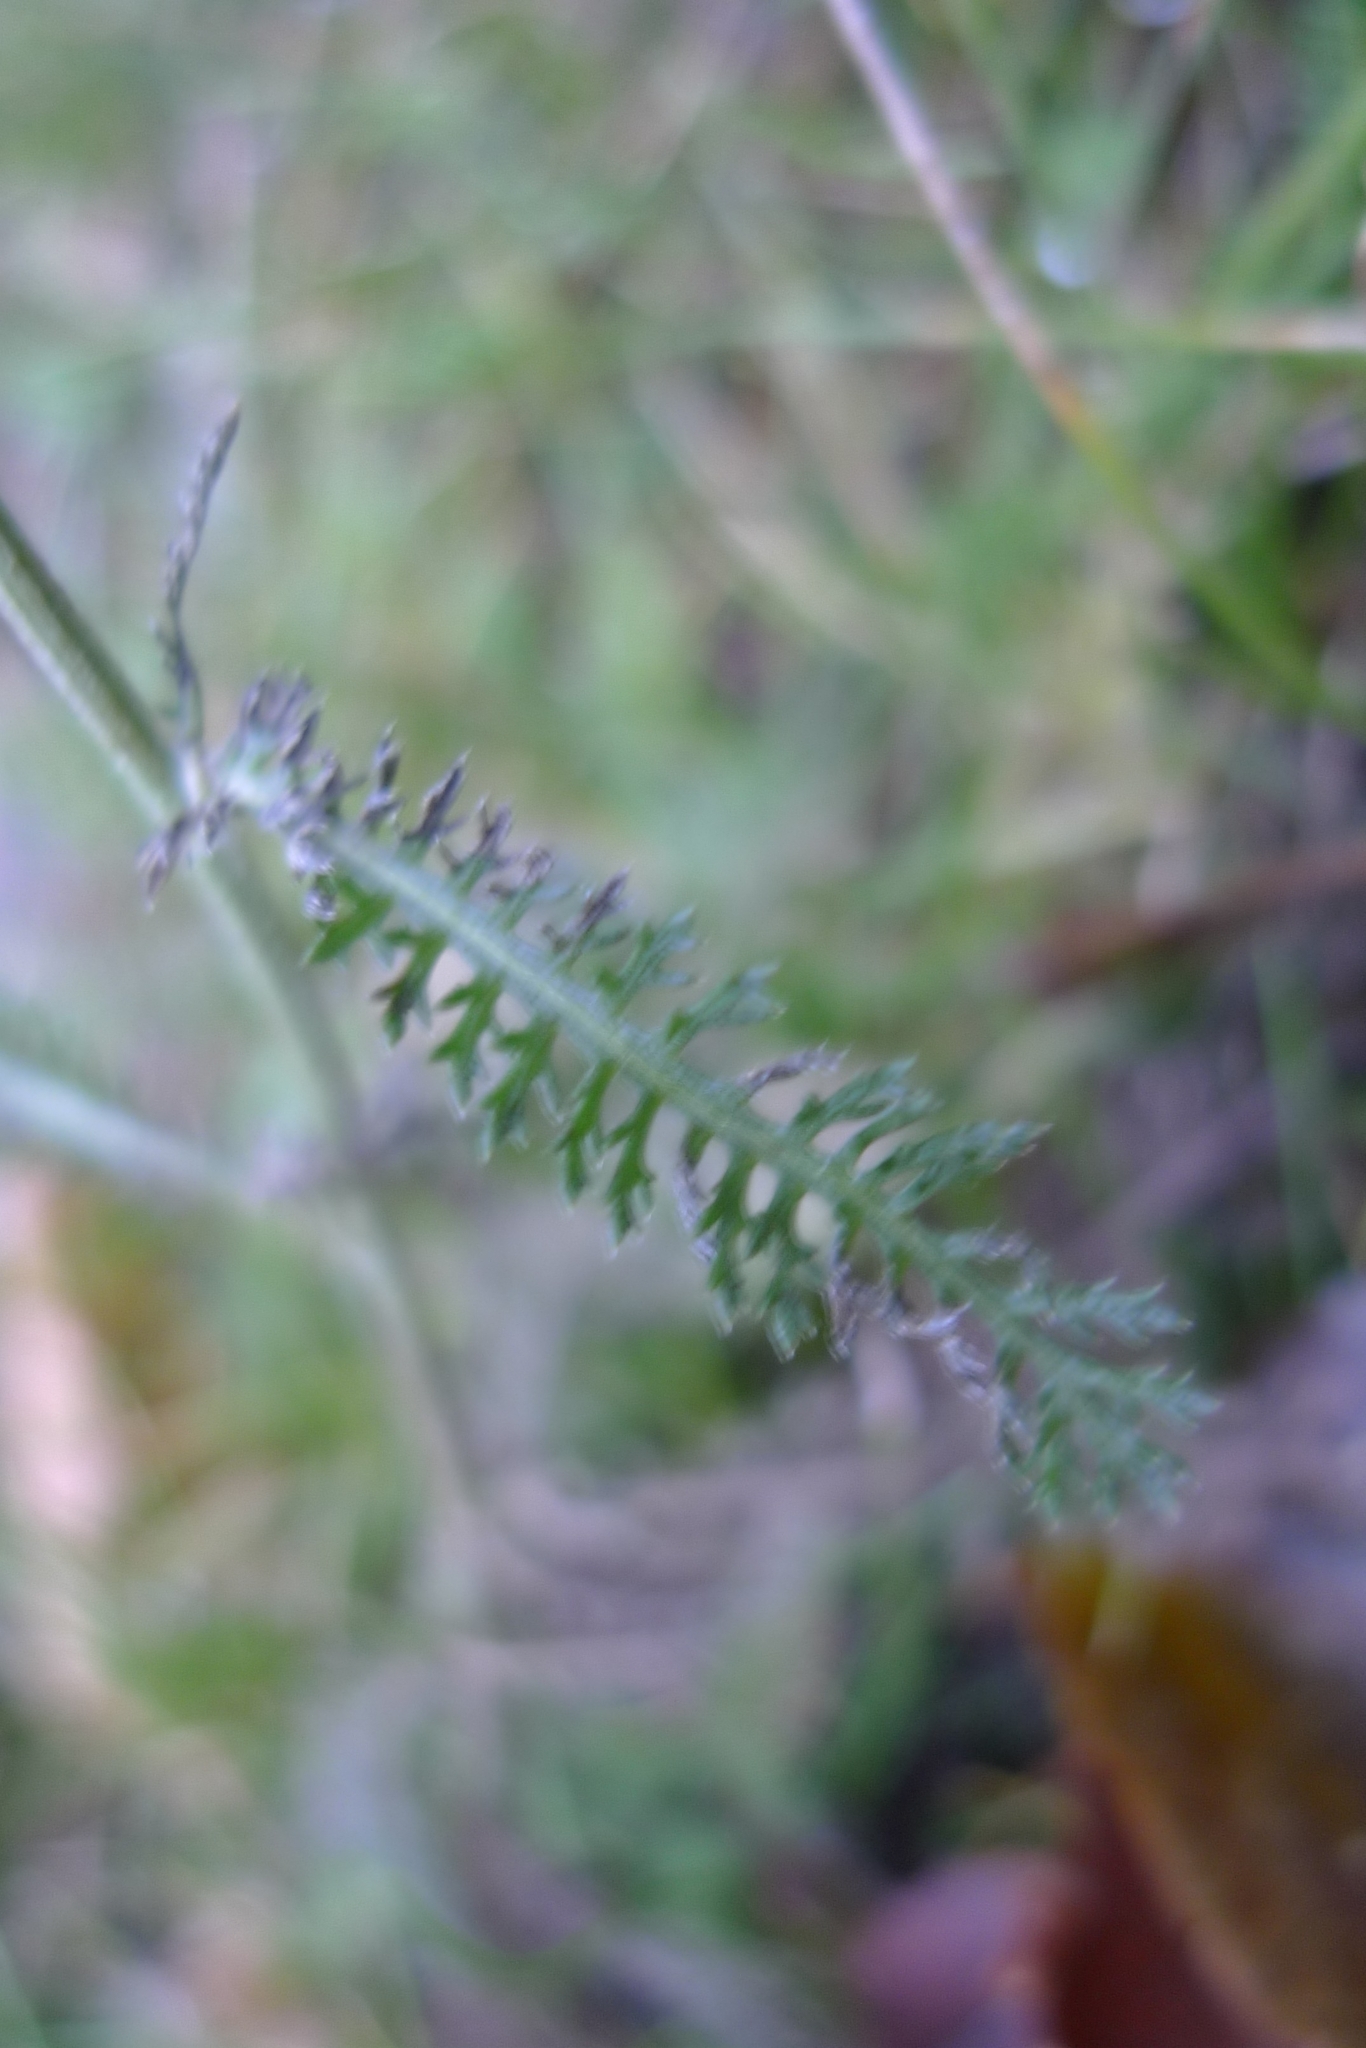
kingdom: Plantae
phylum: Tracheophyta
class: Magnoliopsida
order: Asterales
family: Asteraceae
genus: Achillea
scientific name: Achillea millefolium
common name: Yarrow
